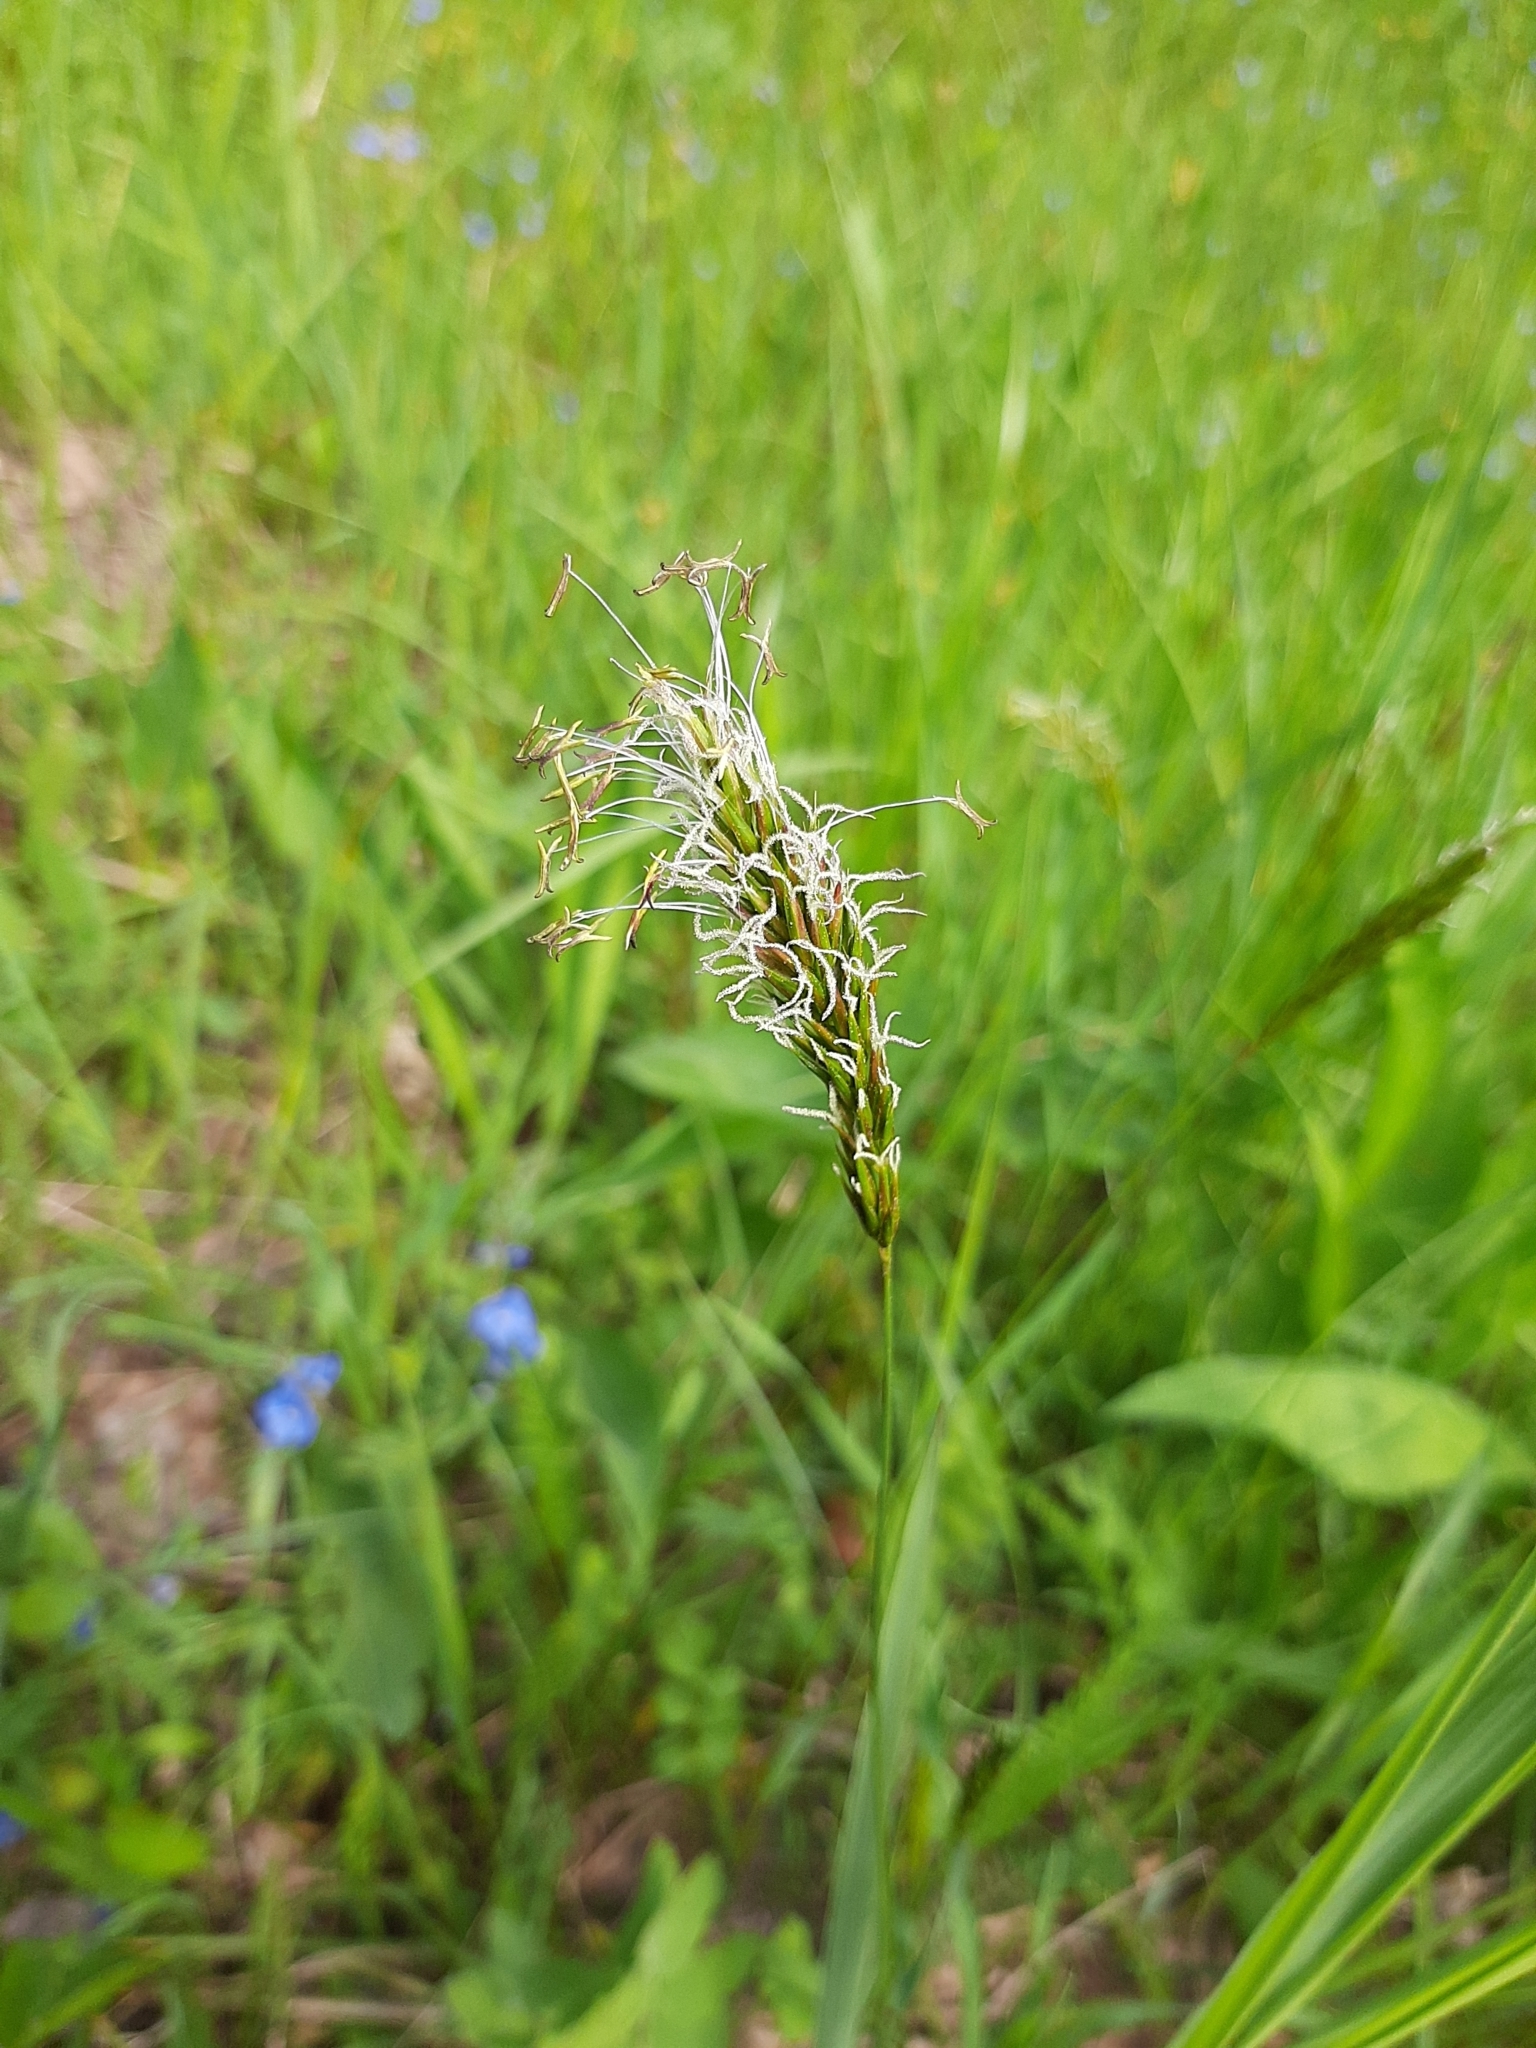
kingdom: Plantae
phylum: Tracheophyta
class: Liliopsida
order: Poales
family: Poaceae
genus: Anthoxanthum
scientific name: Anthoxanthum odoratum
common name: Sweet vernalgrass
